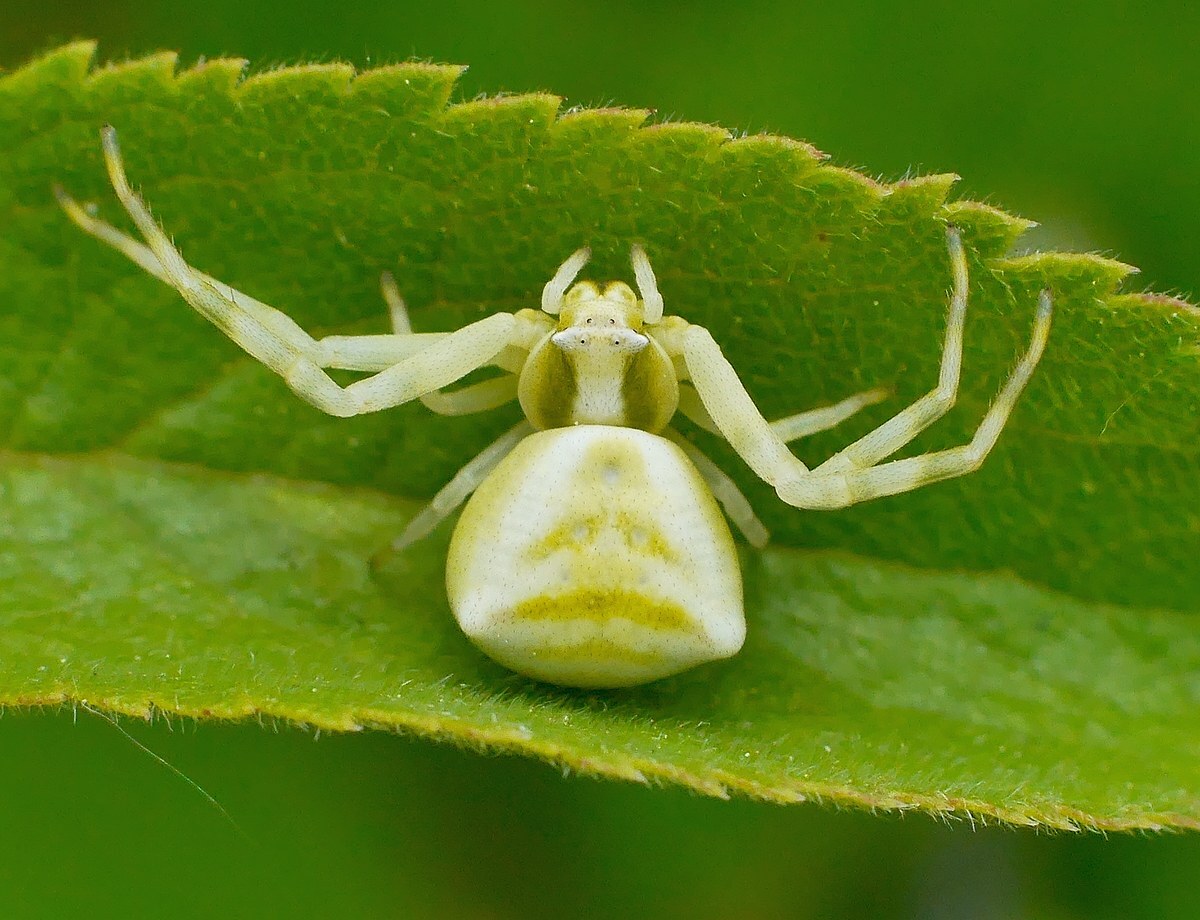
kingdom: Animalia
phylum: Arthropoda
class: Arachnida
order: Araneae
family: Thomisidae
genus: Thomisus
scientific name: Thomisus onustus
